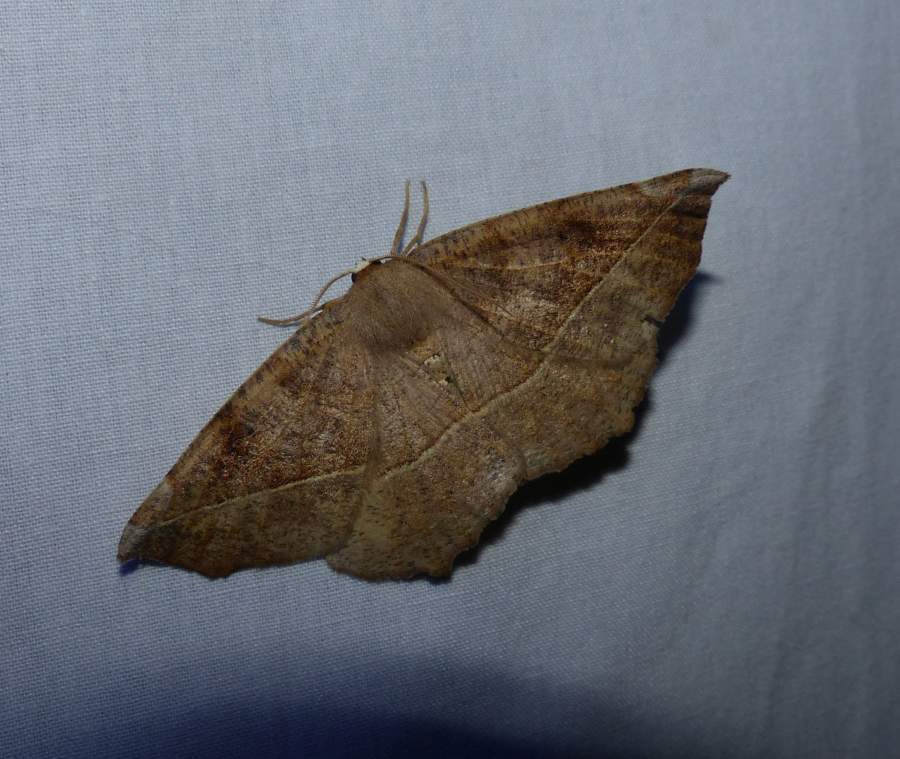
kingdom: Animalia
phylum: Arthropoda
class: Insecta
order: Lepidoptera
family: Geometridae
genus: Eutrapela
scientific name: Eutrapela clemataria
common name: Curved-toothed geometer
